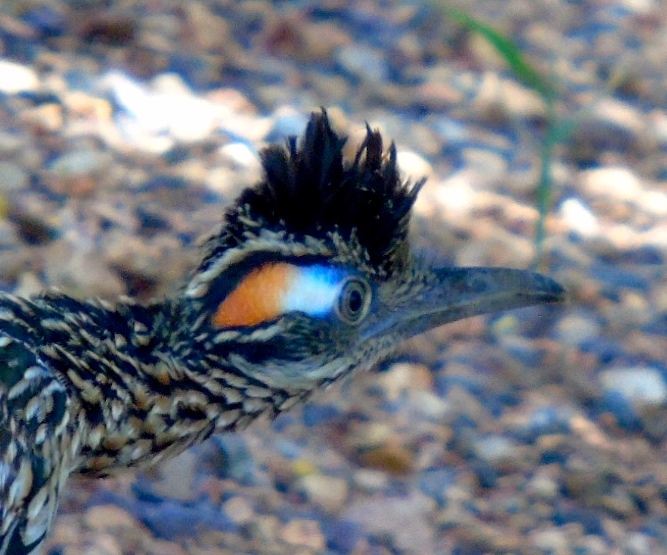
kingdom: Animalia
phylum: Chordata
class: Aves
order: Cuculiformes
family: Cuculidae
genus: Geococcyx
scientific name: Geococcyx californianus
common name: Greater roadrunner
